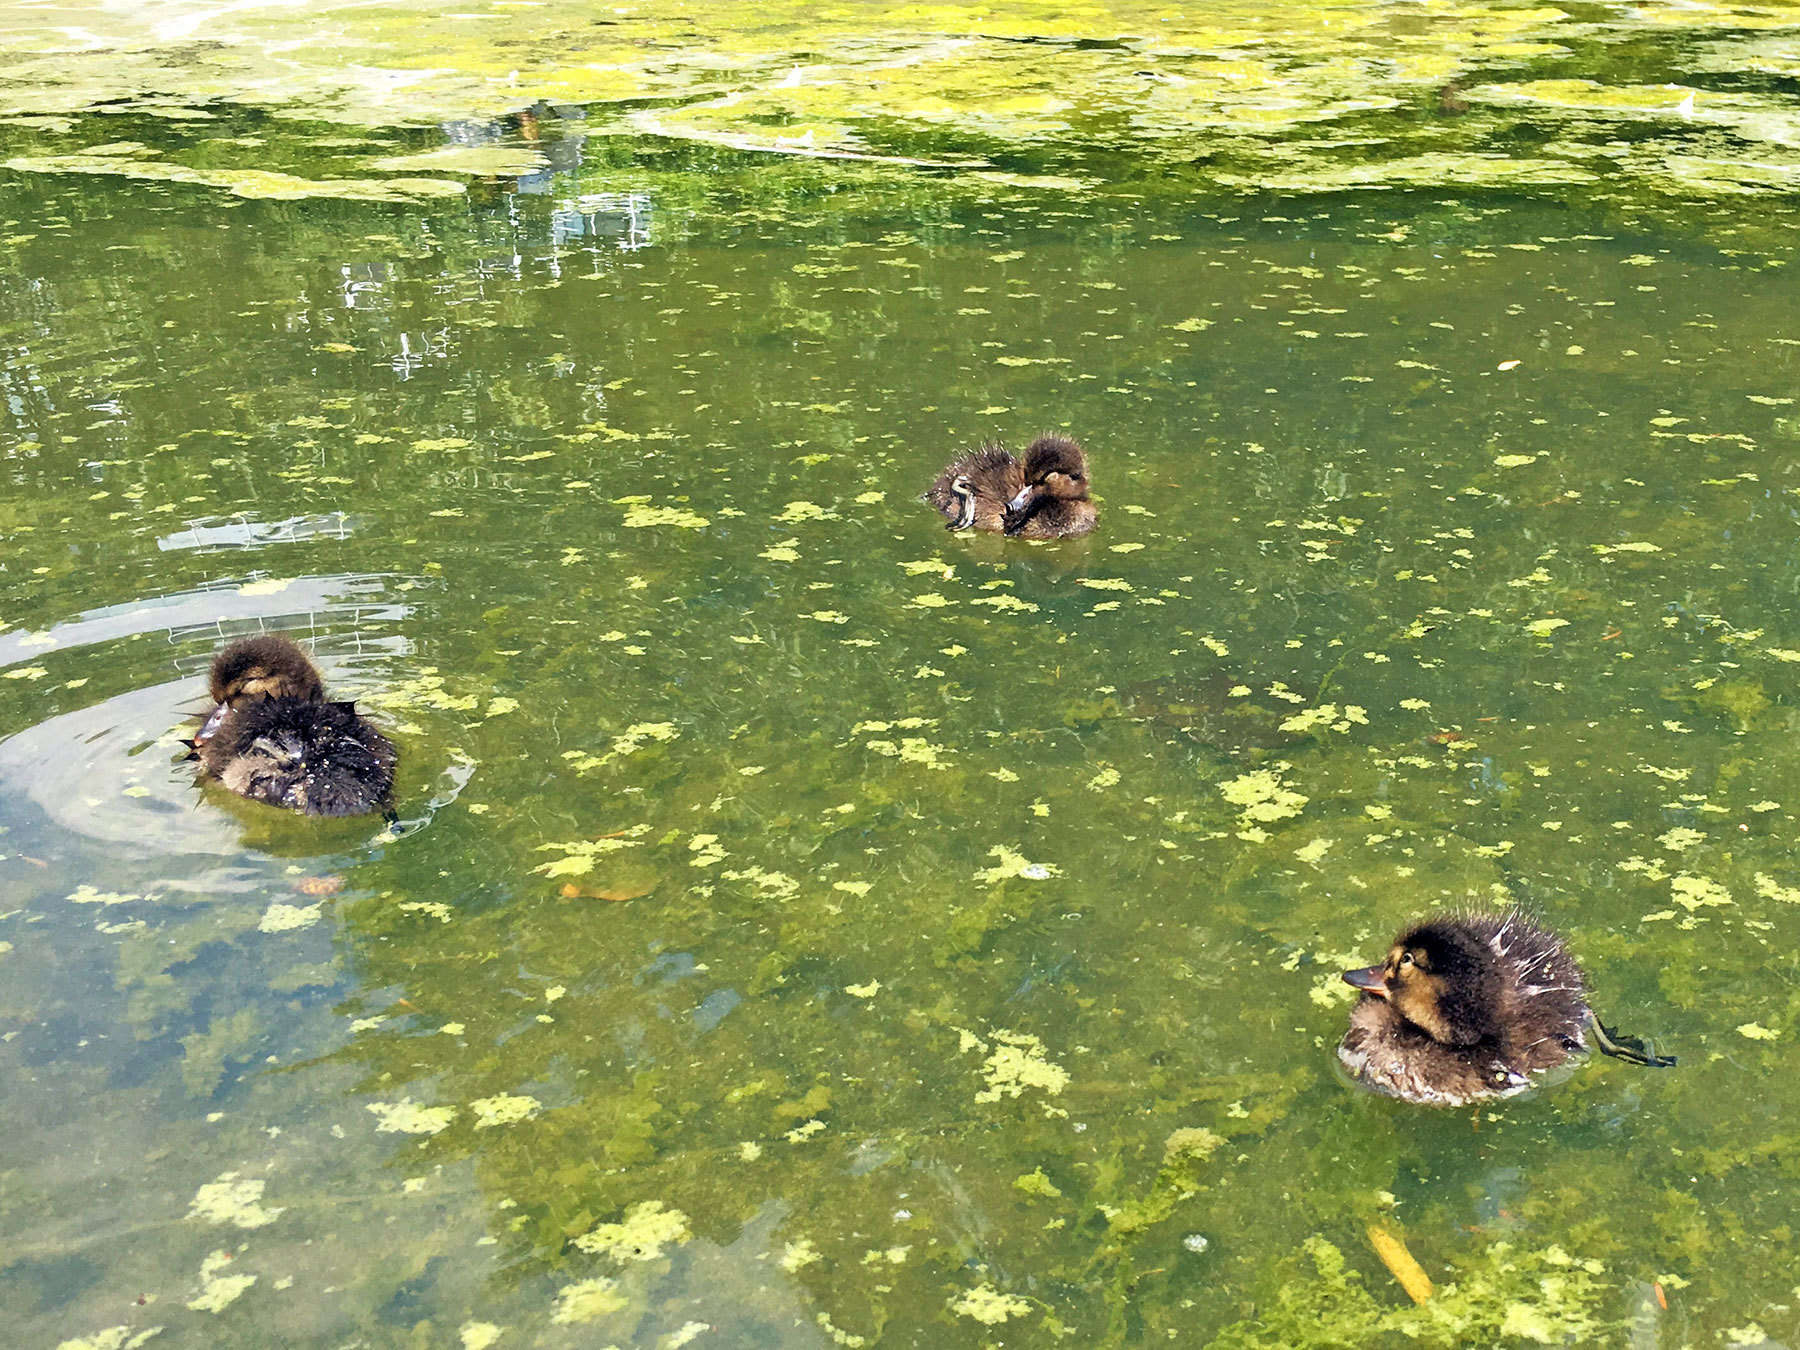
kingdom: Animalia
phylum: Chordata
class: Aves
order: Anseriformes
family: Anatidae
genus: Aythya
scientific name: Aythya fuligula
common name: Tufted duck
